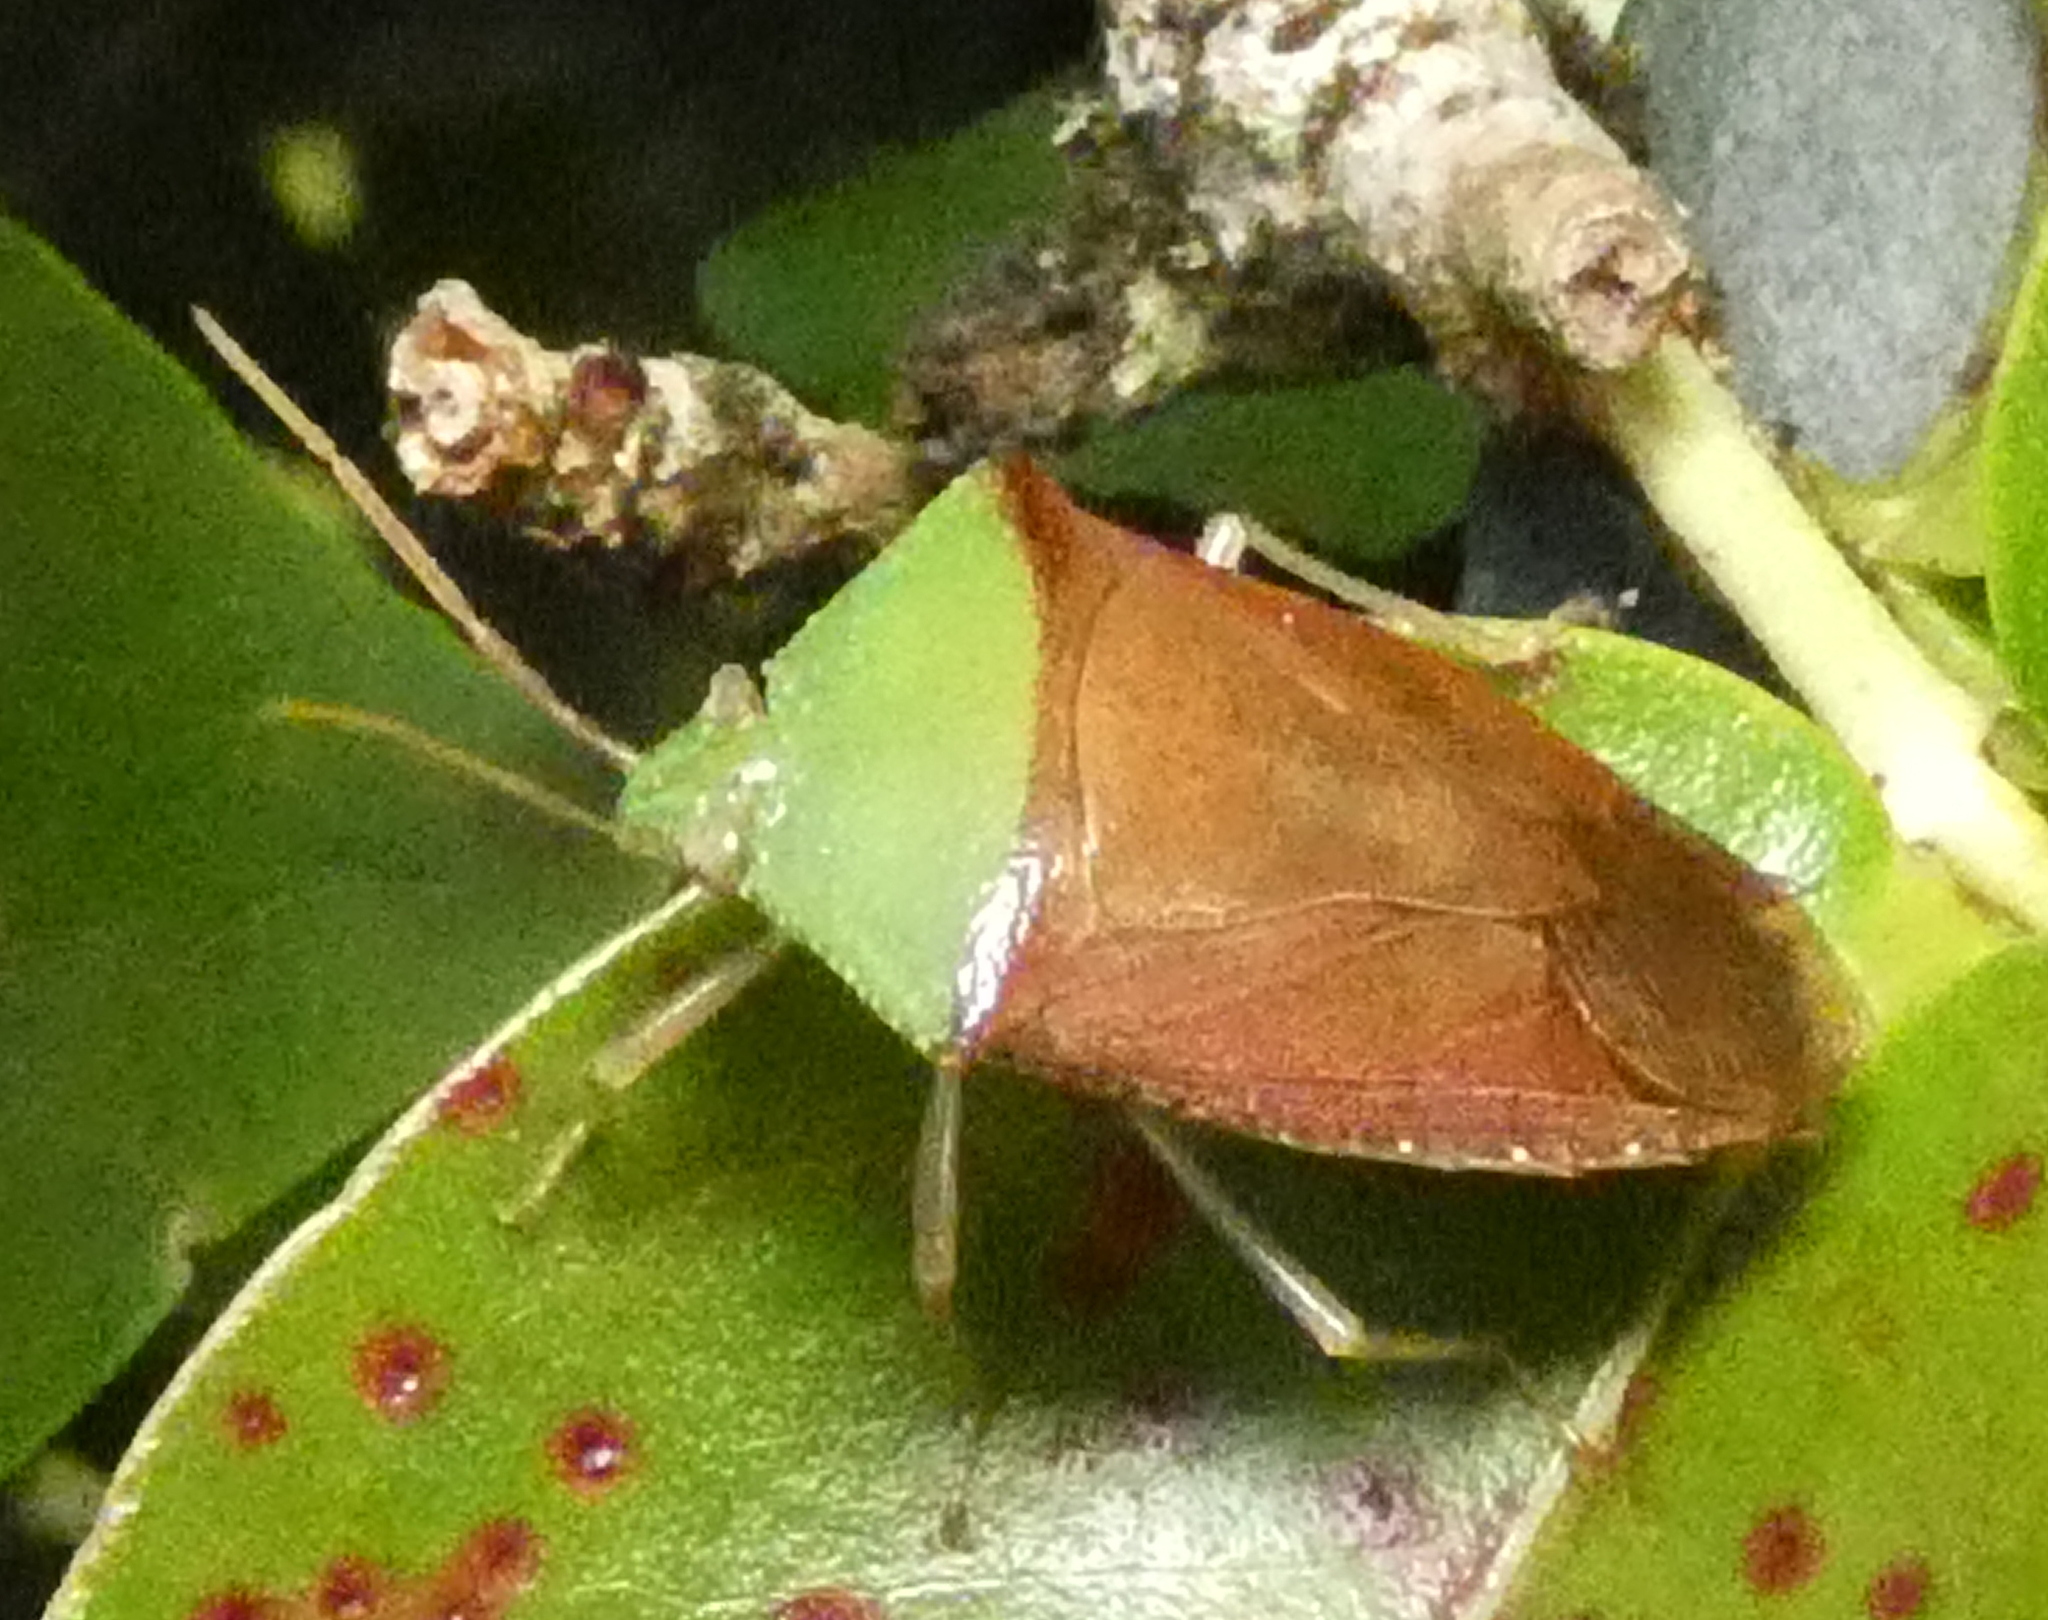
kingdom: Animalia
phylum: Arthropoda
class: Insecta
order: Hemiptera
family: Pentatomidae
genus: Hypoxys
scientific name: Hypoxys triangularis
